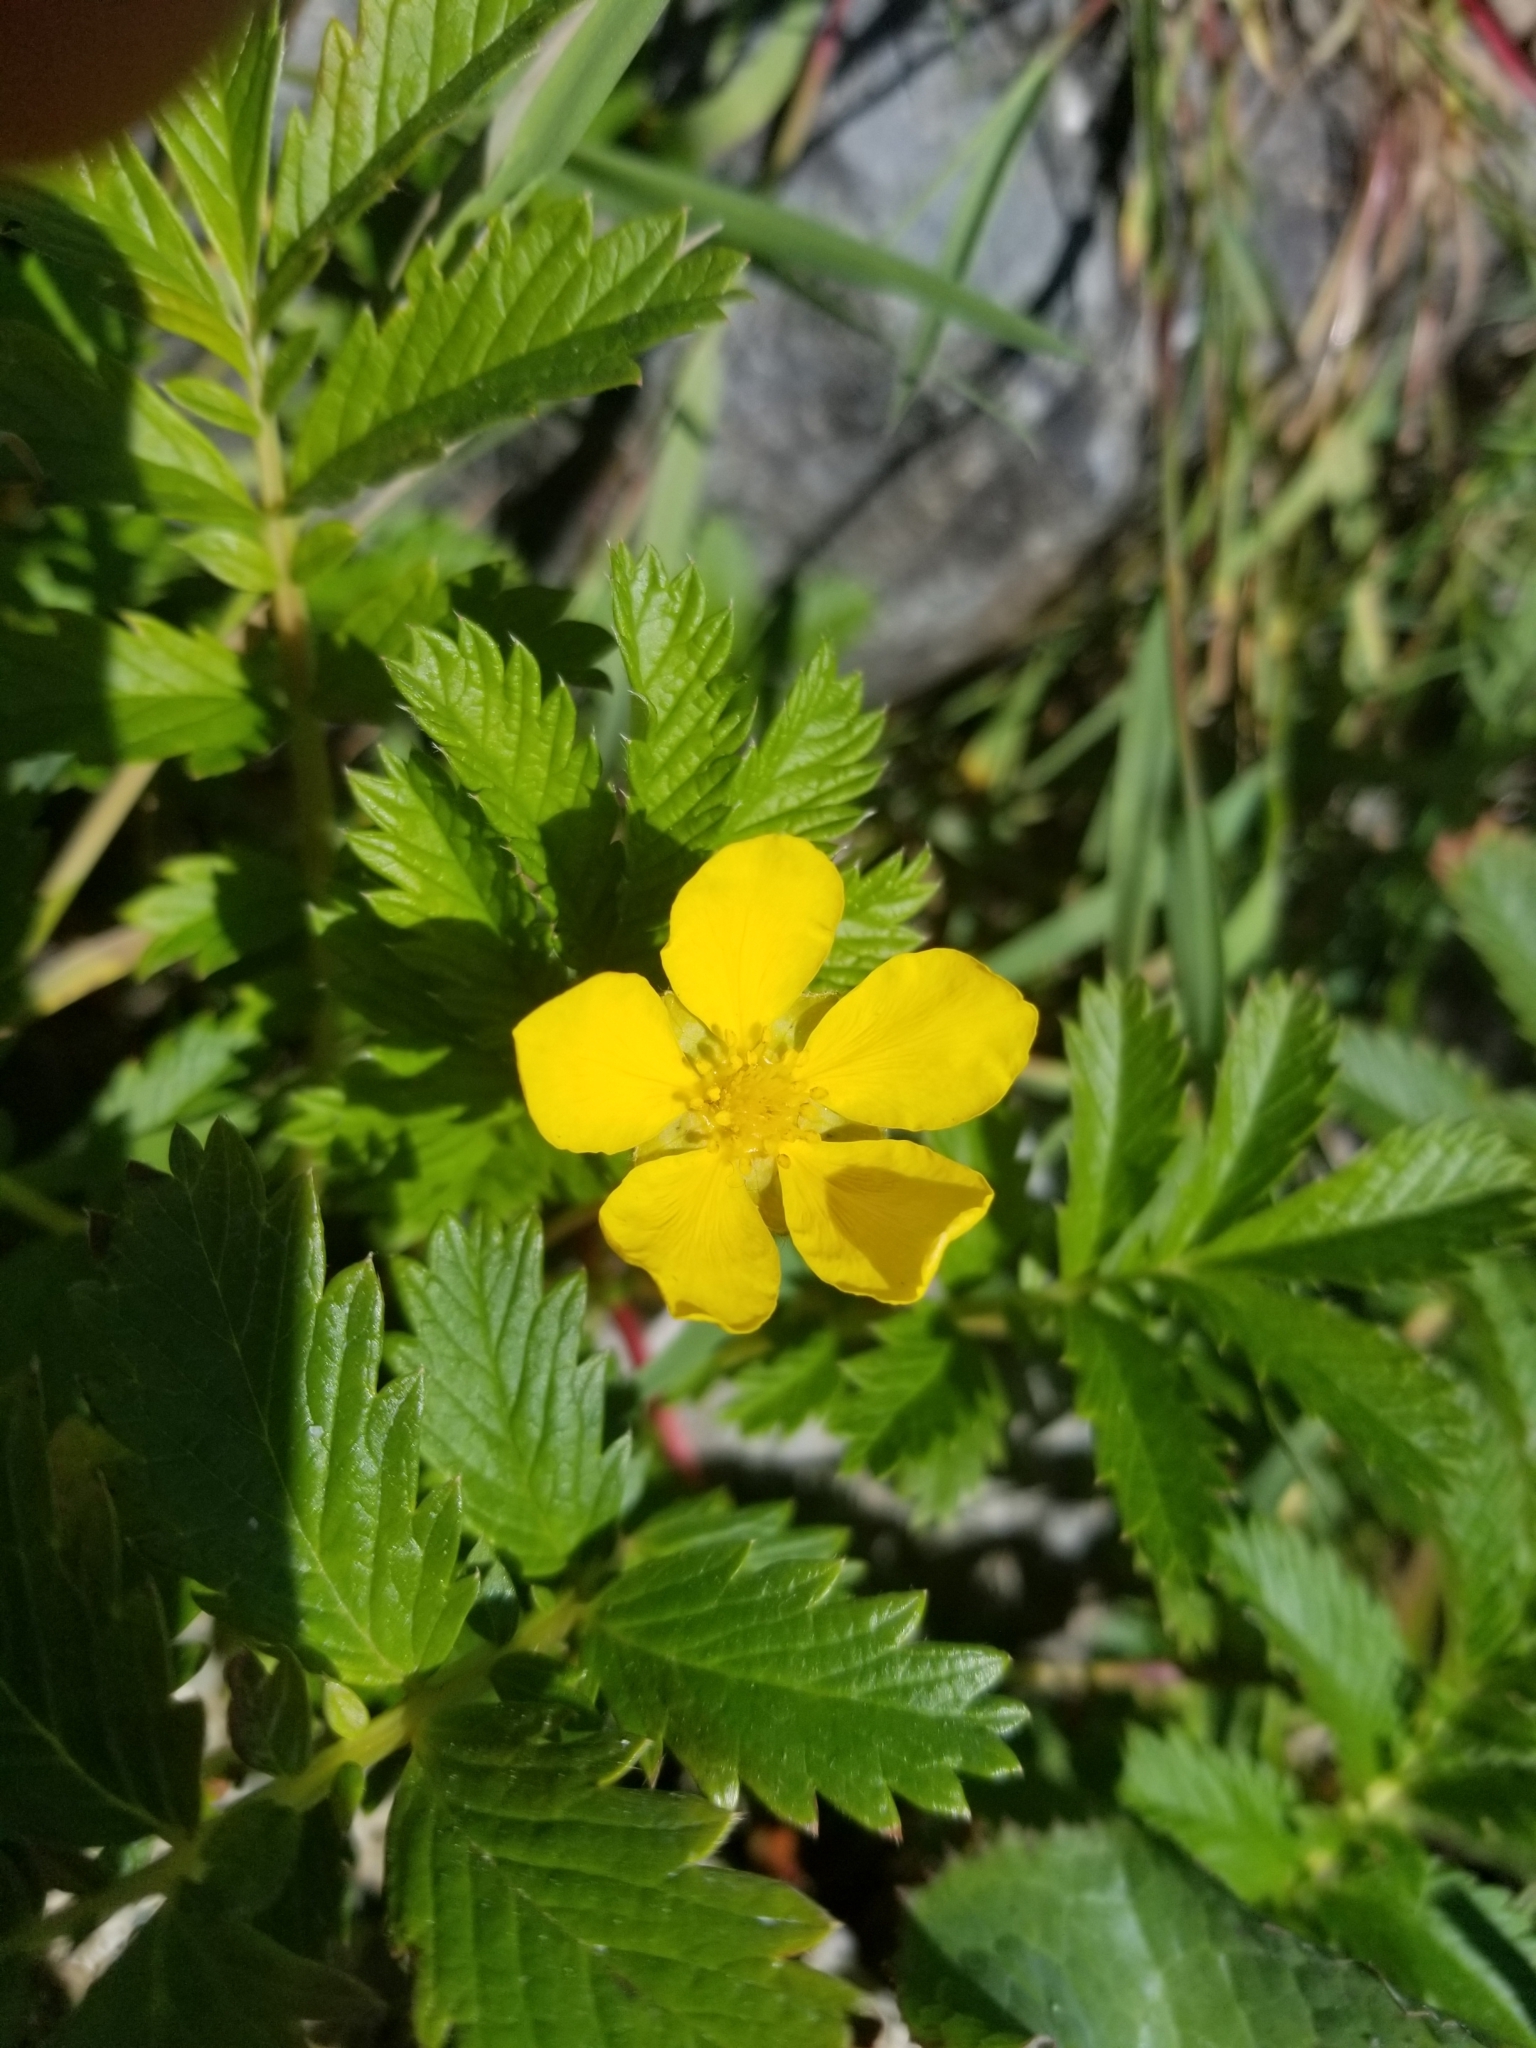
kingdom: Plantae
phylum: Tracheophyta
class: Magnoliopsida
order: Rosales
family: Rosaceae
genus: Argentina
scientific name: Argentina anserina
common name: Common silverweed
